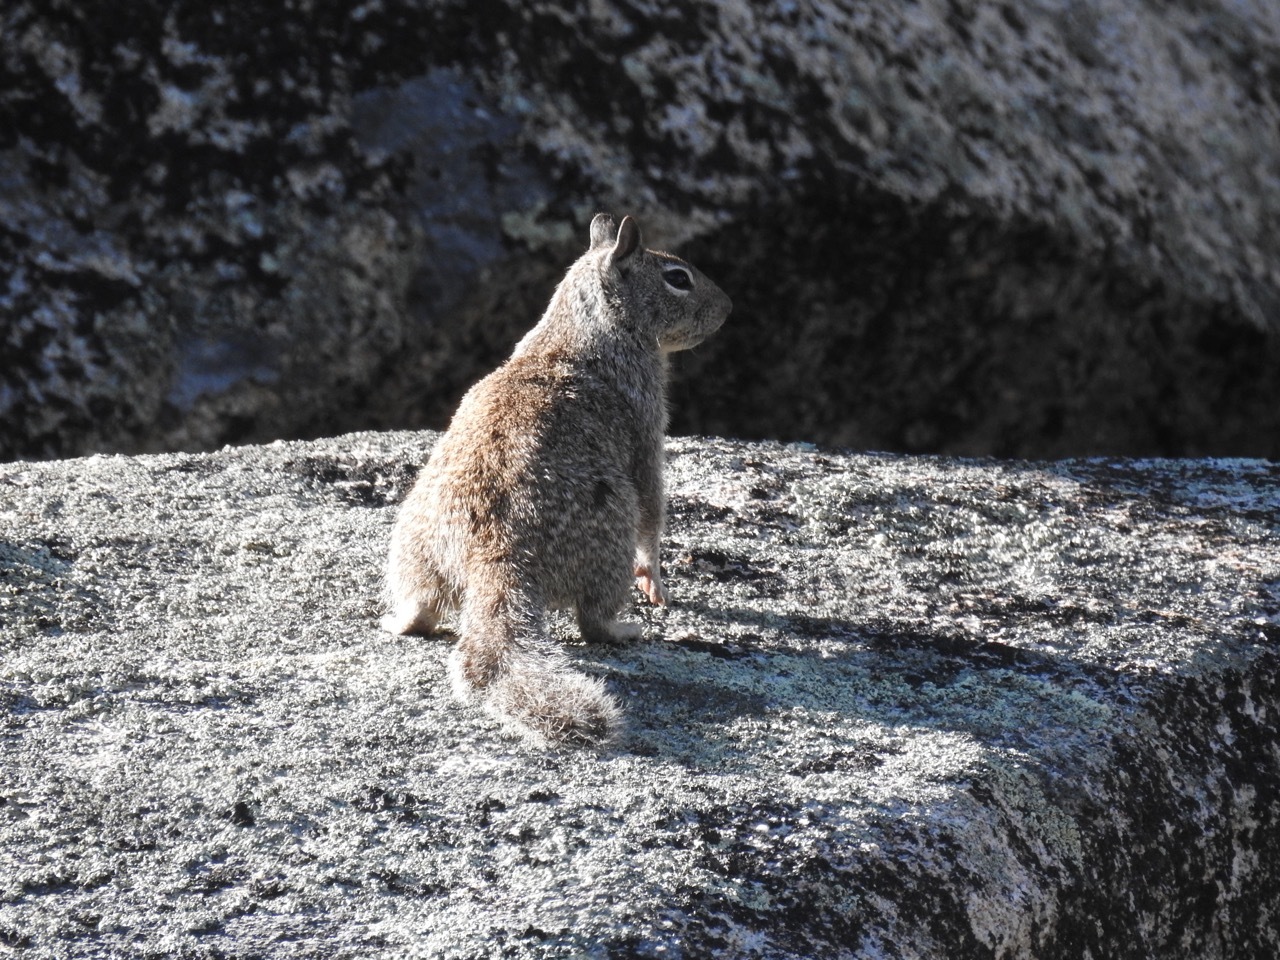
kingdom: Animalia
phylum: Chordata
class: Mammalia
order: Rodentia
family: Sciuridae
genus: Otospermophilus
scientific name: Otospermophilus beecheyi
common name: California ground squirrel
